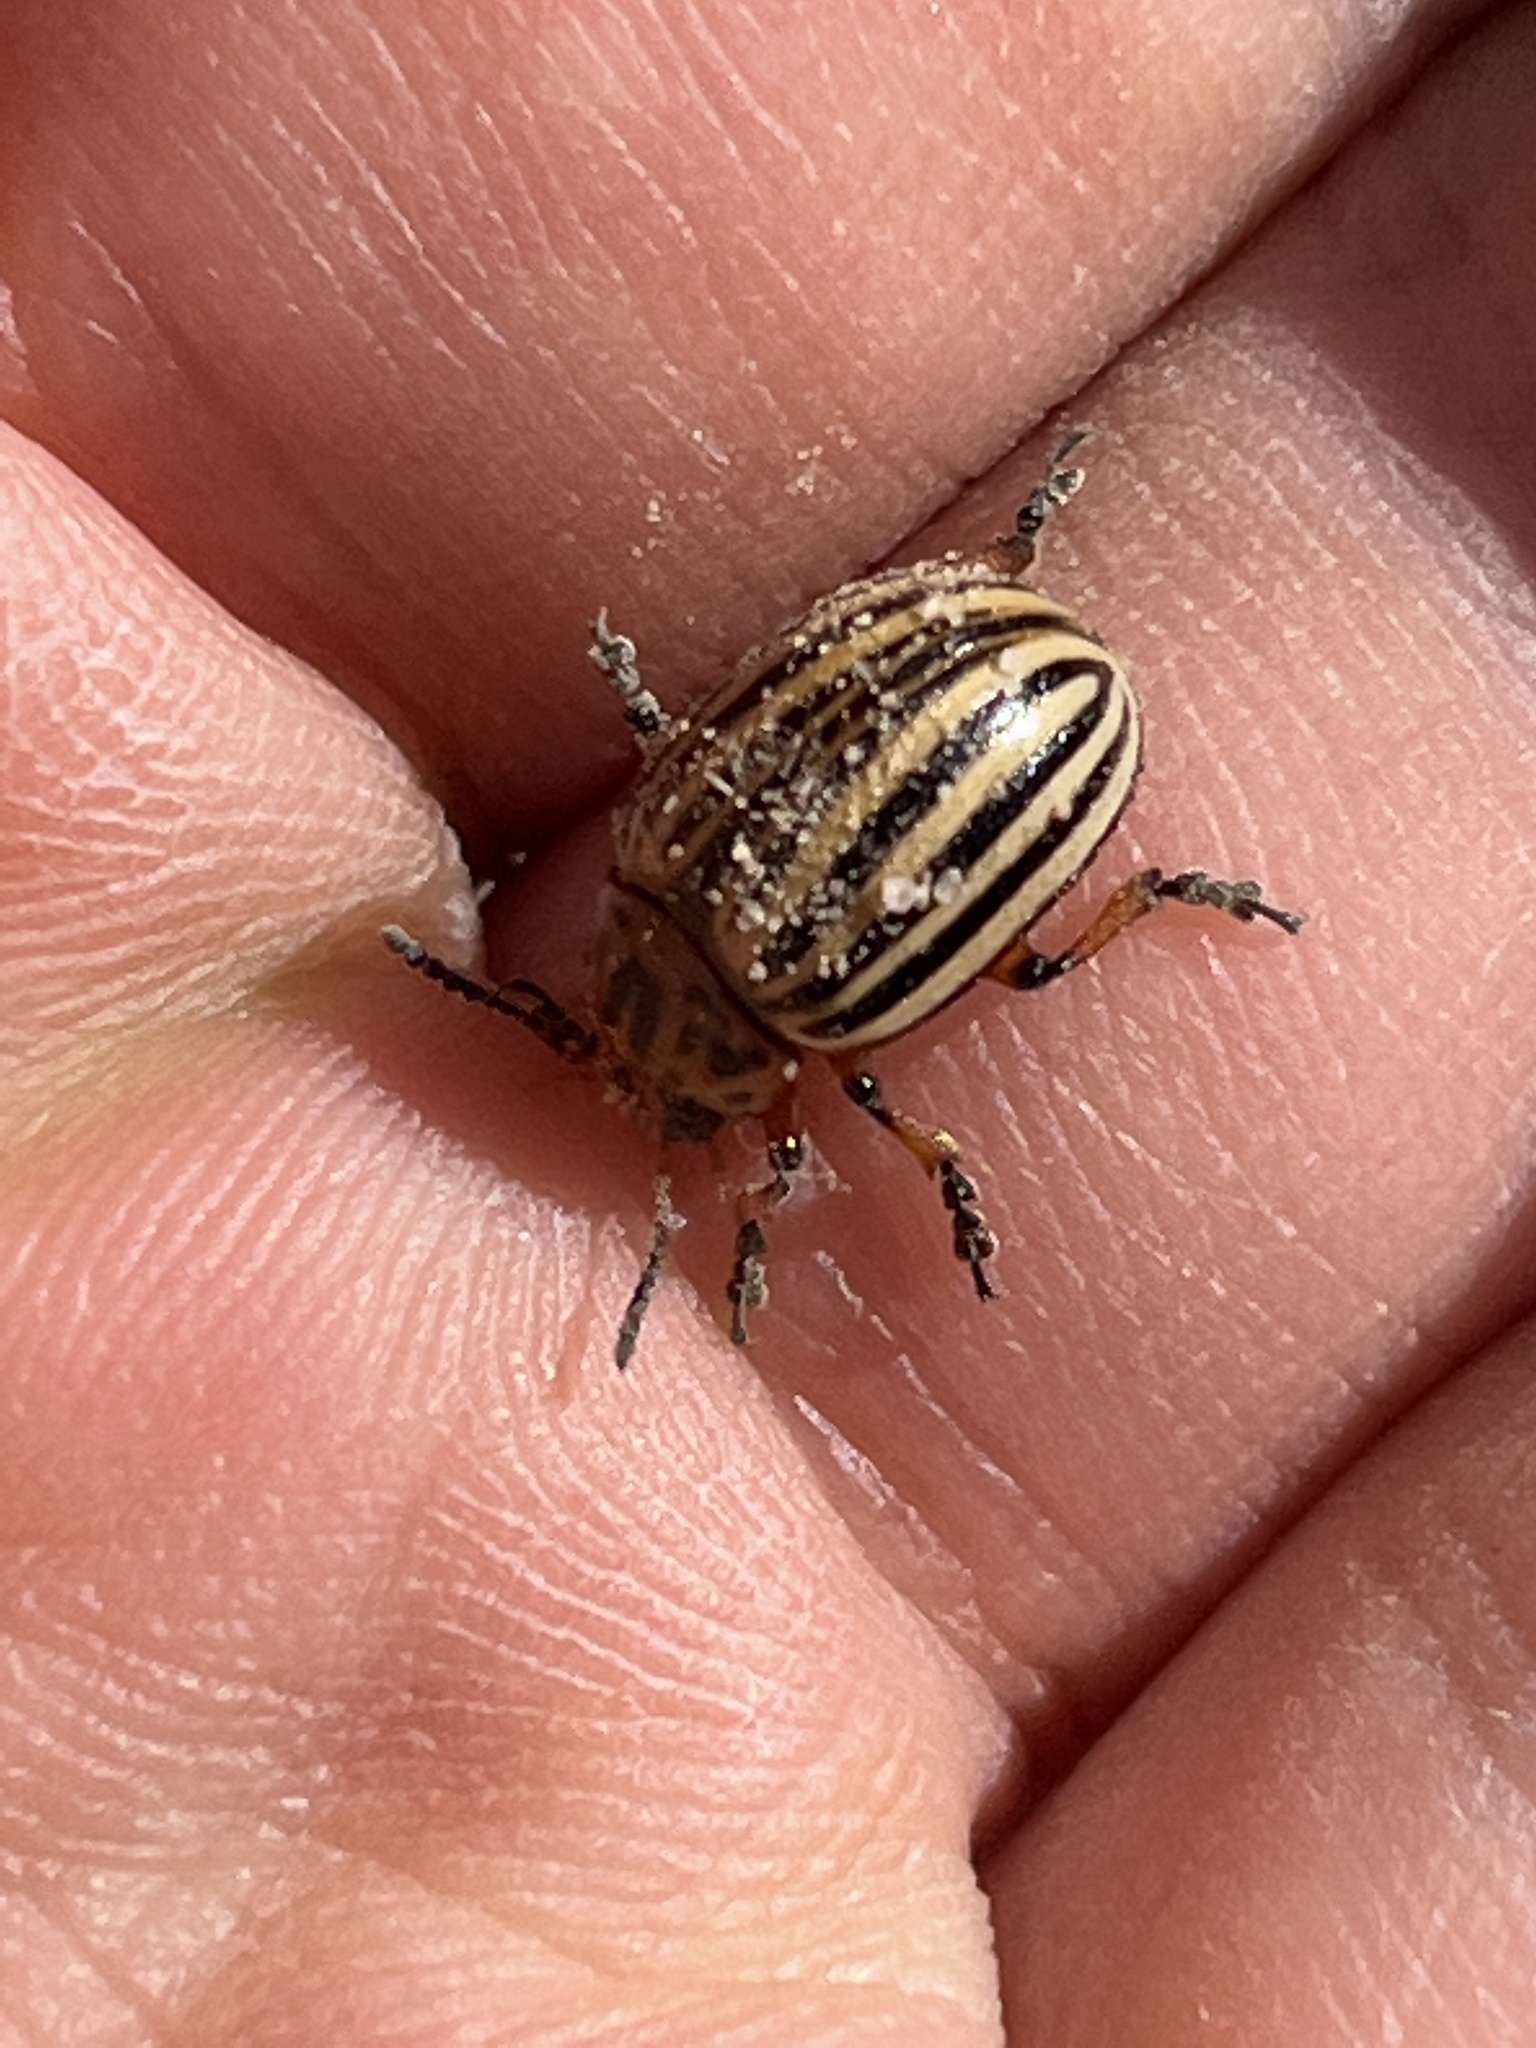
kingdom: Animalia
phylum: Arthropoda
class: Insecta
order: Coleoptera
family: Chrysomelidae
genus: Leptinotarsa
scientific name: Leptinotarsa decemlineata
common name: Colorado potato beetle
